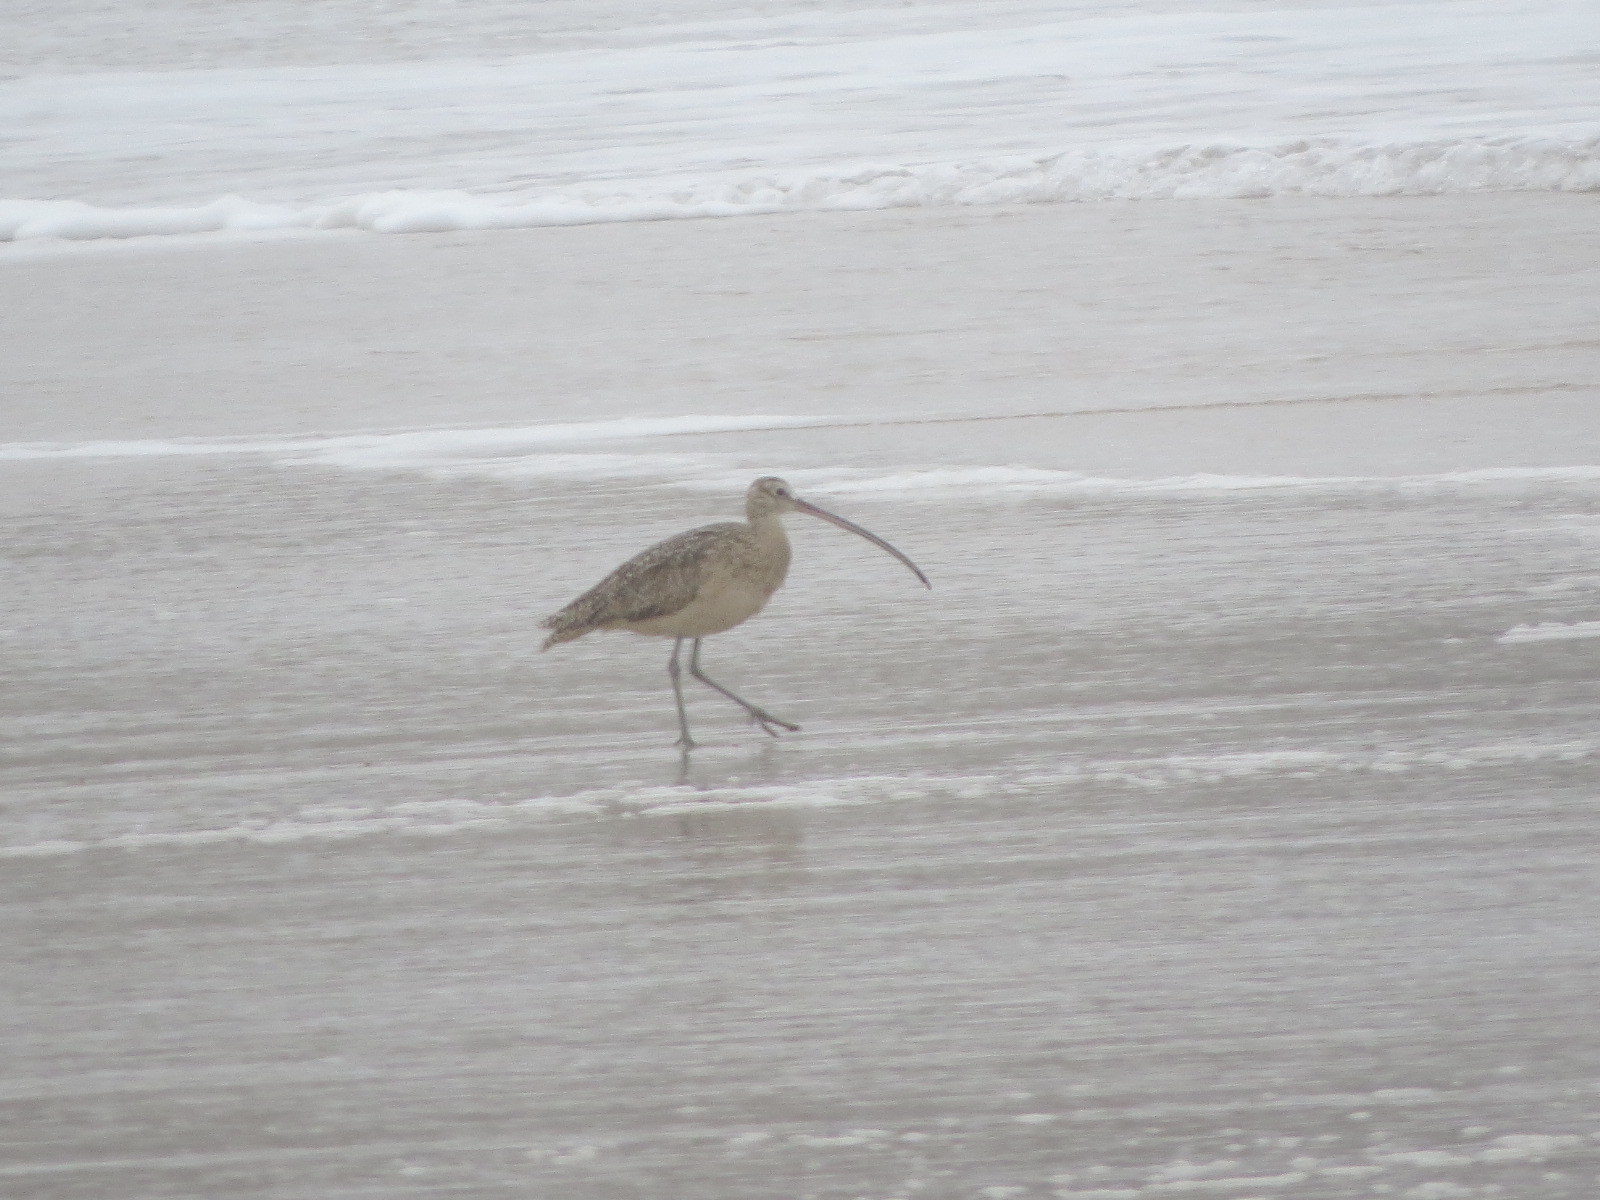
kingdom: Animalia
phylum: Chordata
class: Aves
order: Charadriiformes
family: Scolopacidae
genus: Numenius
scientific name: Numenius americanus
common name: Long-billed curlew
